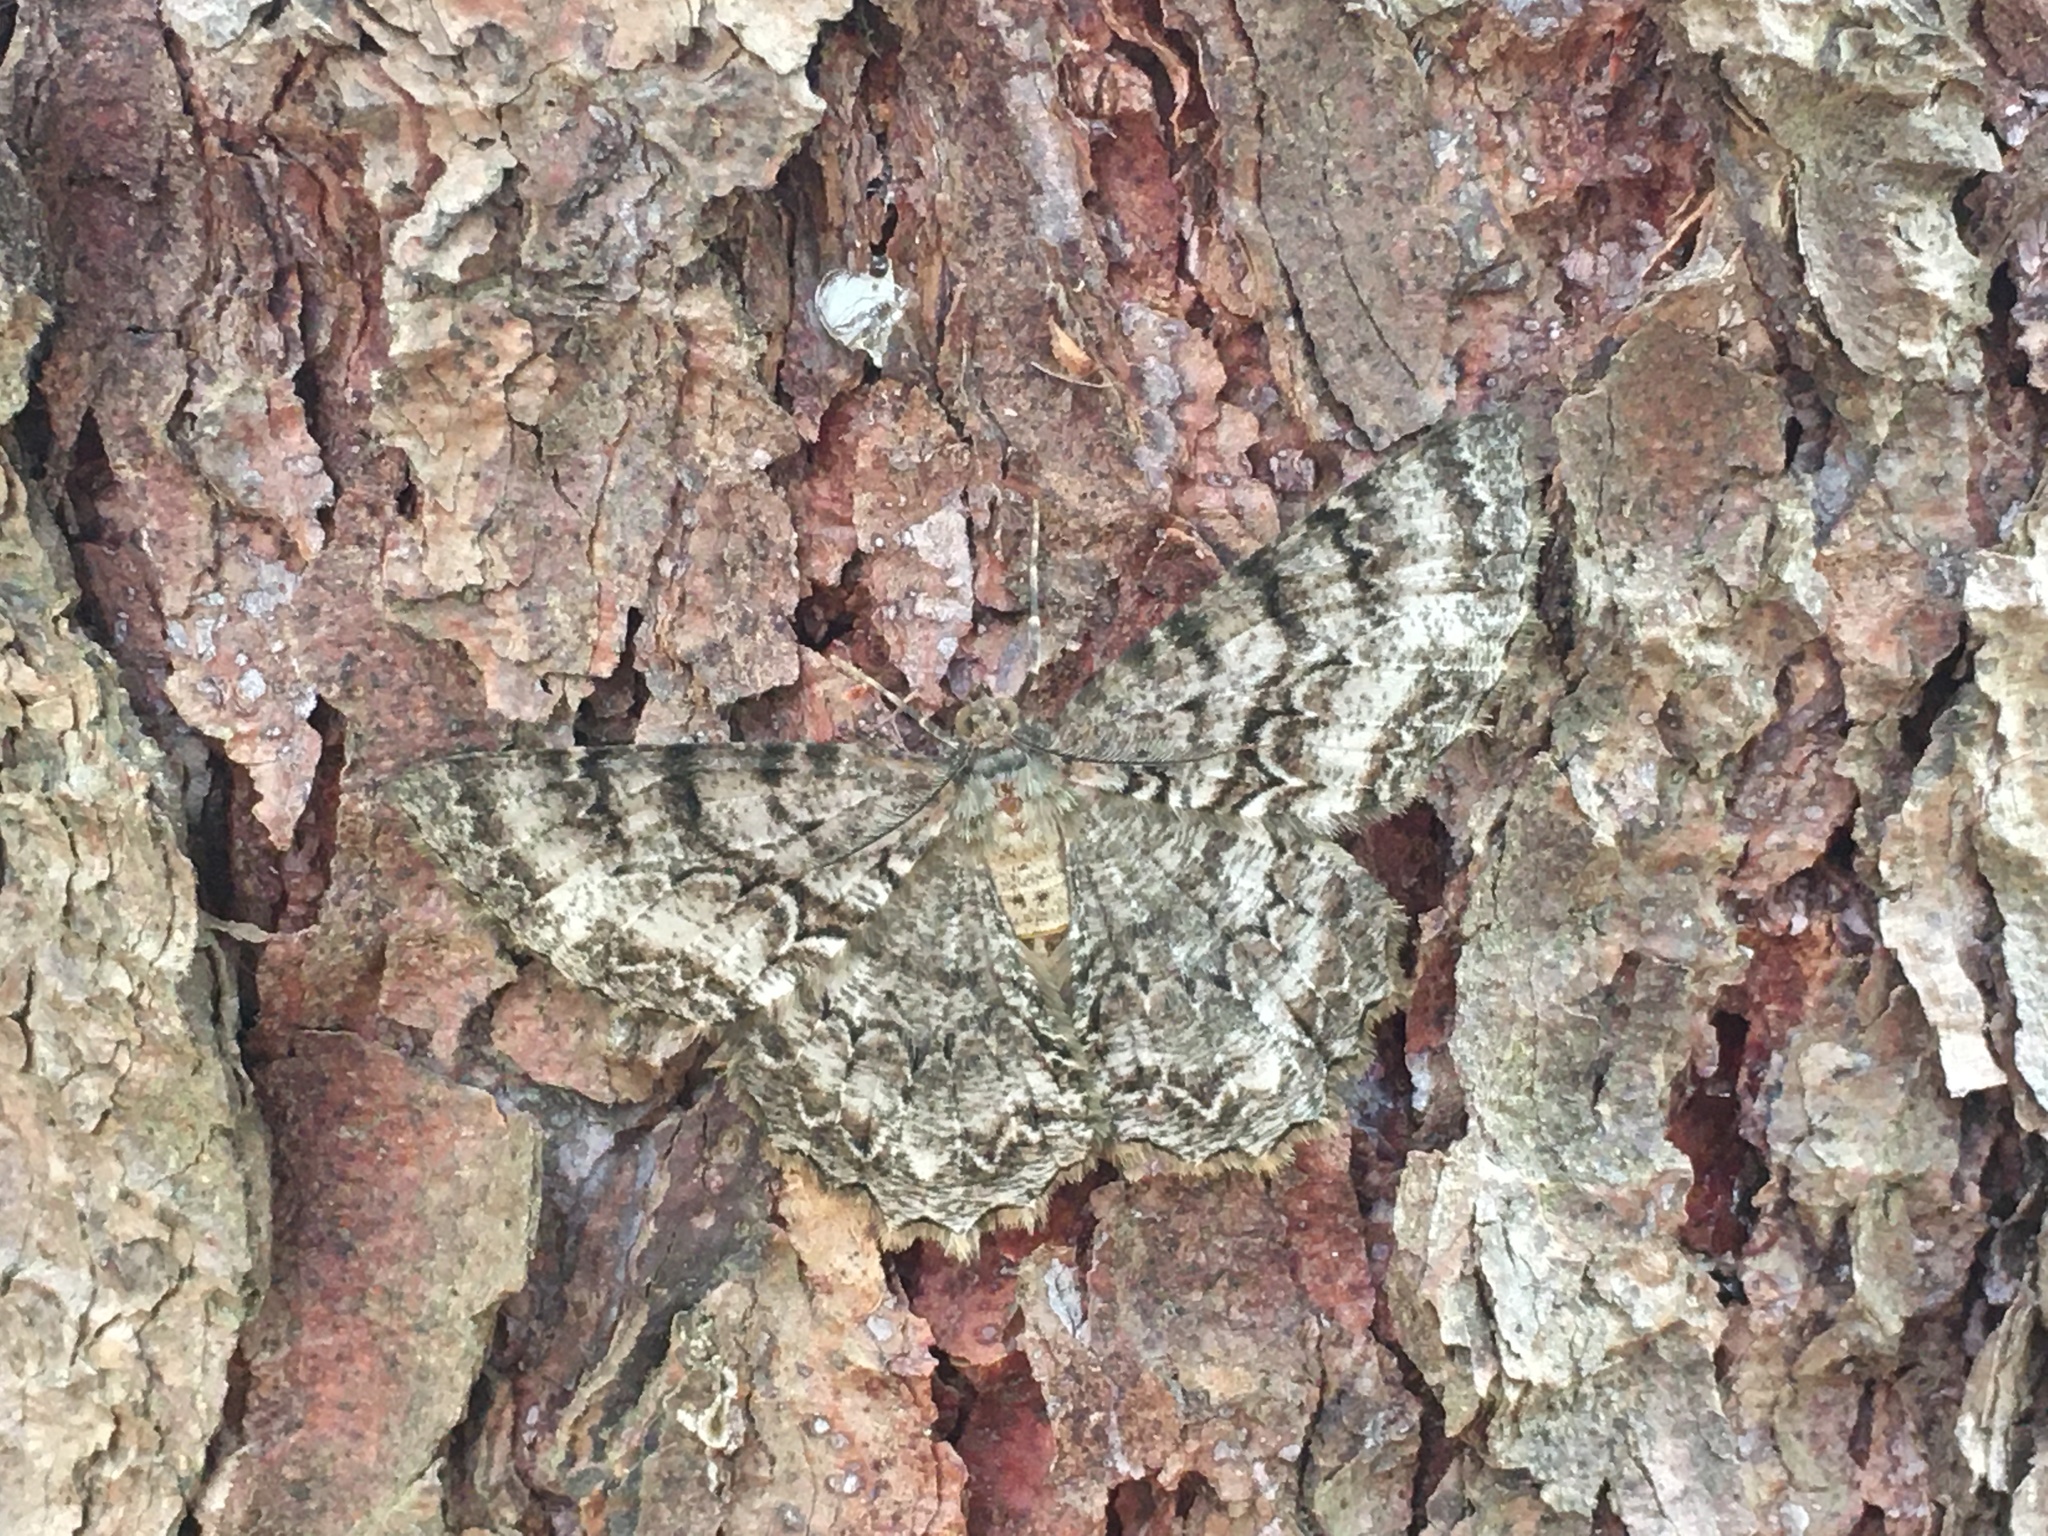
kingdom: Animalia
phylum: Arthropoda
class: Insecta
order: Lepidoptera
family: Geometridae
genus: Epimecis
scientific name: Epimecis hortaria
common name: Tulip-tree beauty
